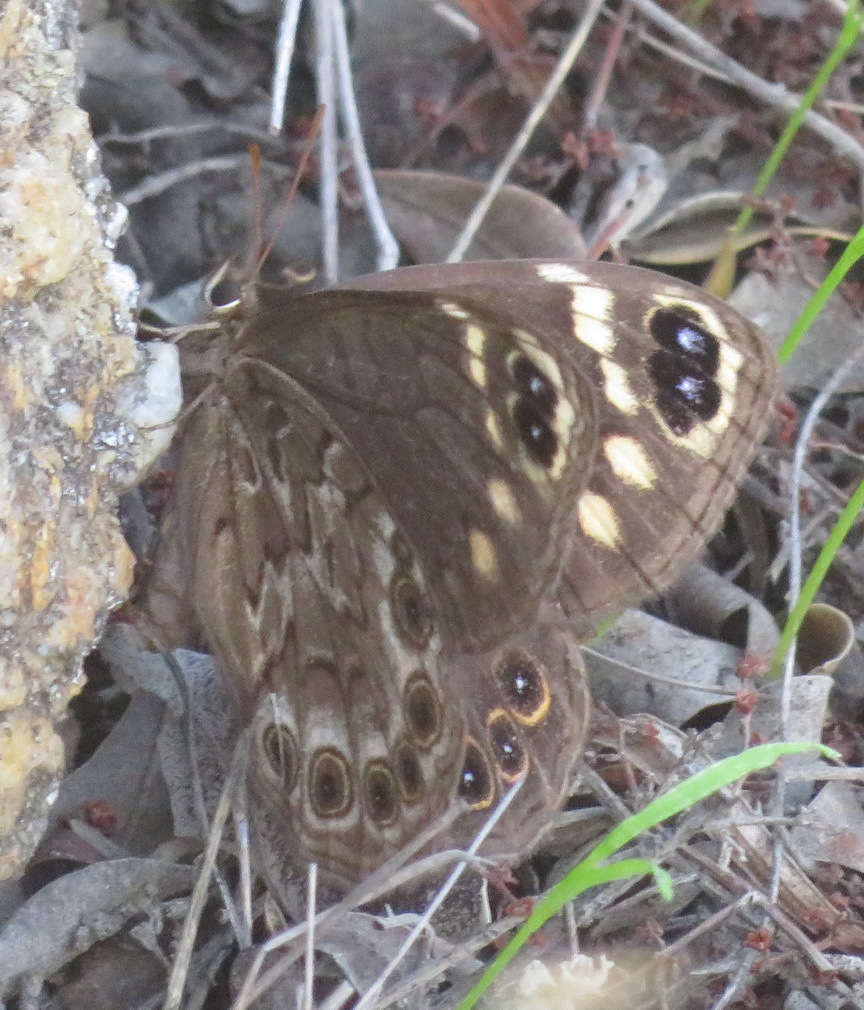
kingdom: Animalia
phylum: Arthropoda
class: Insecta
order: Lepidoptera
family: Nymphalidae
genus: Dira
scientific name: Dira clytus
